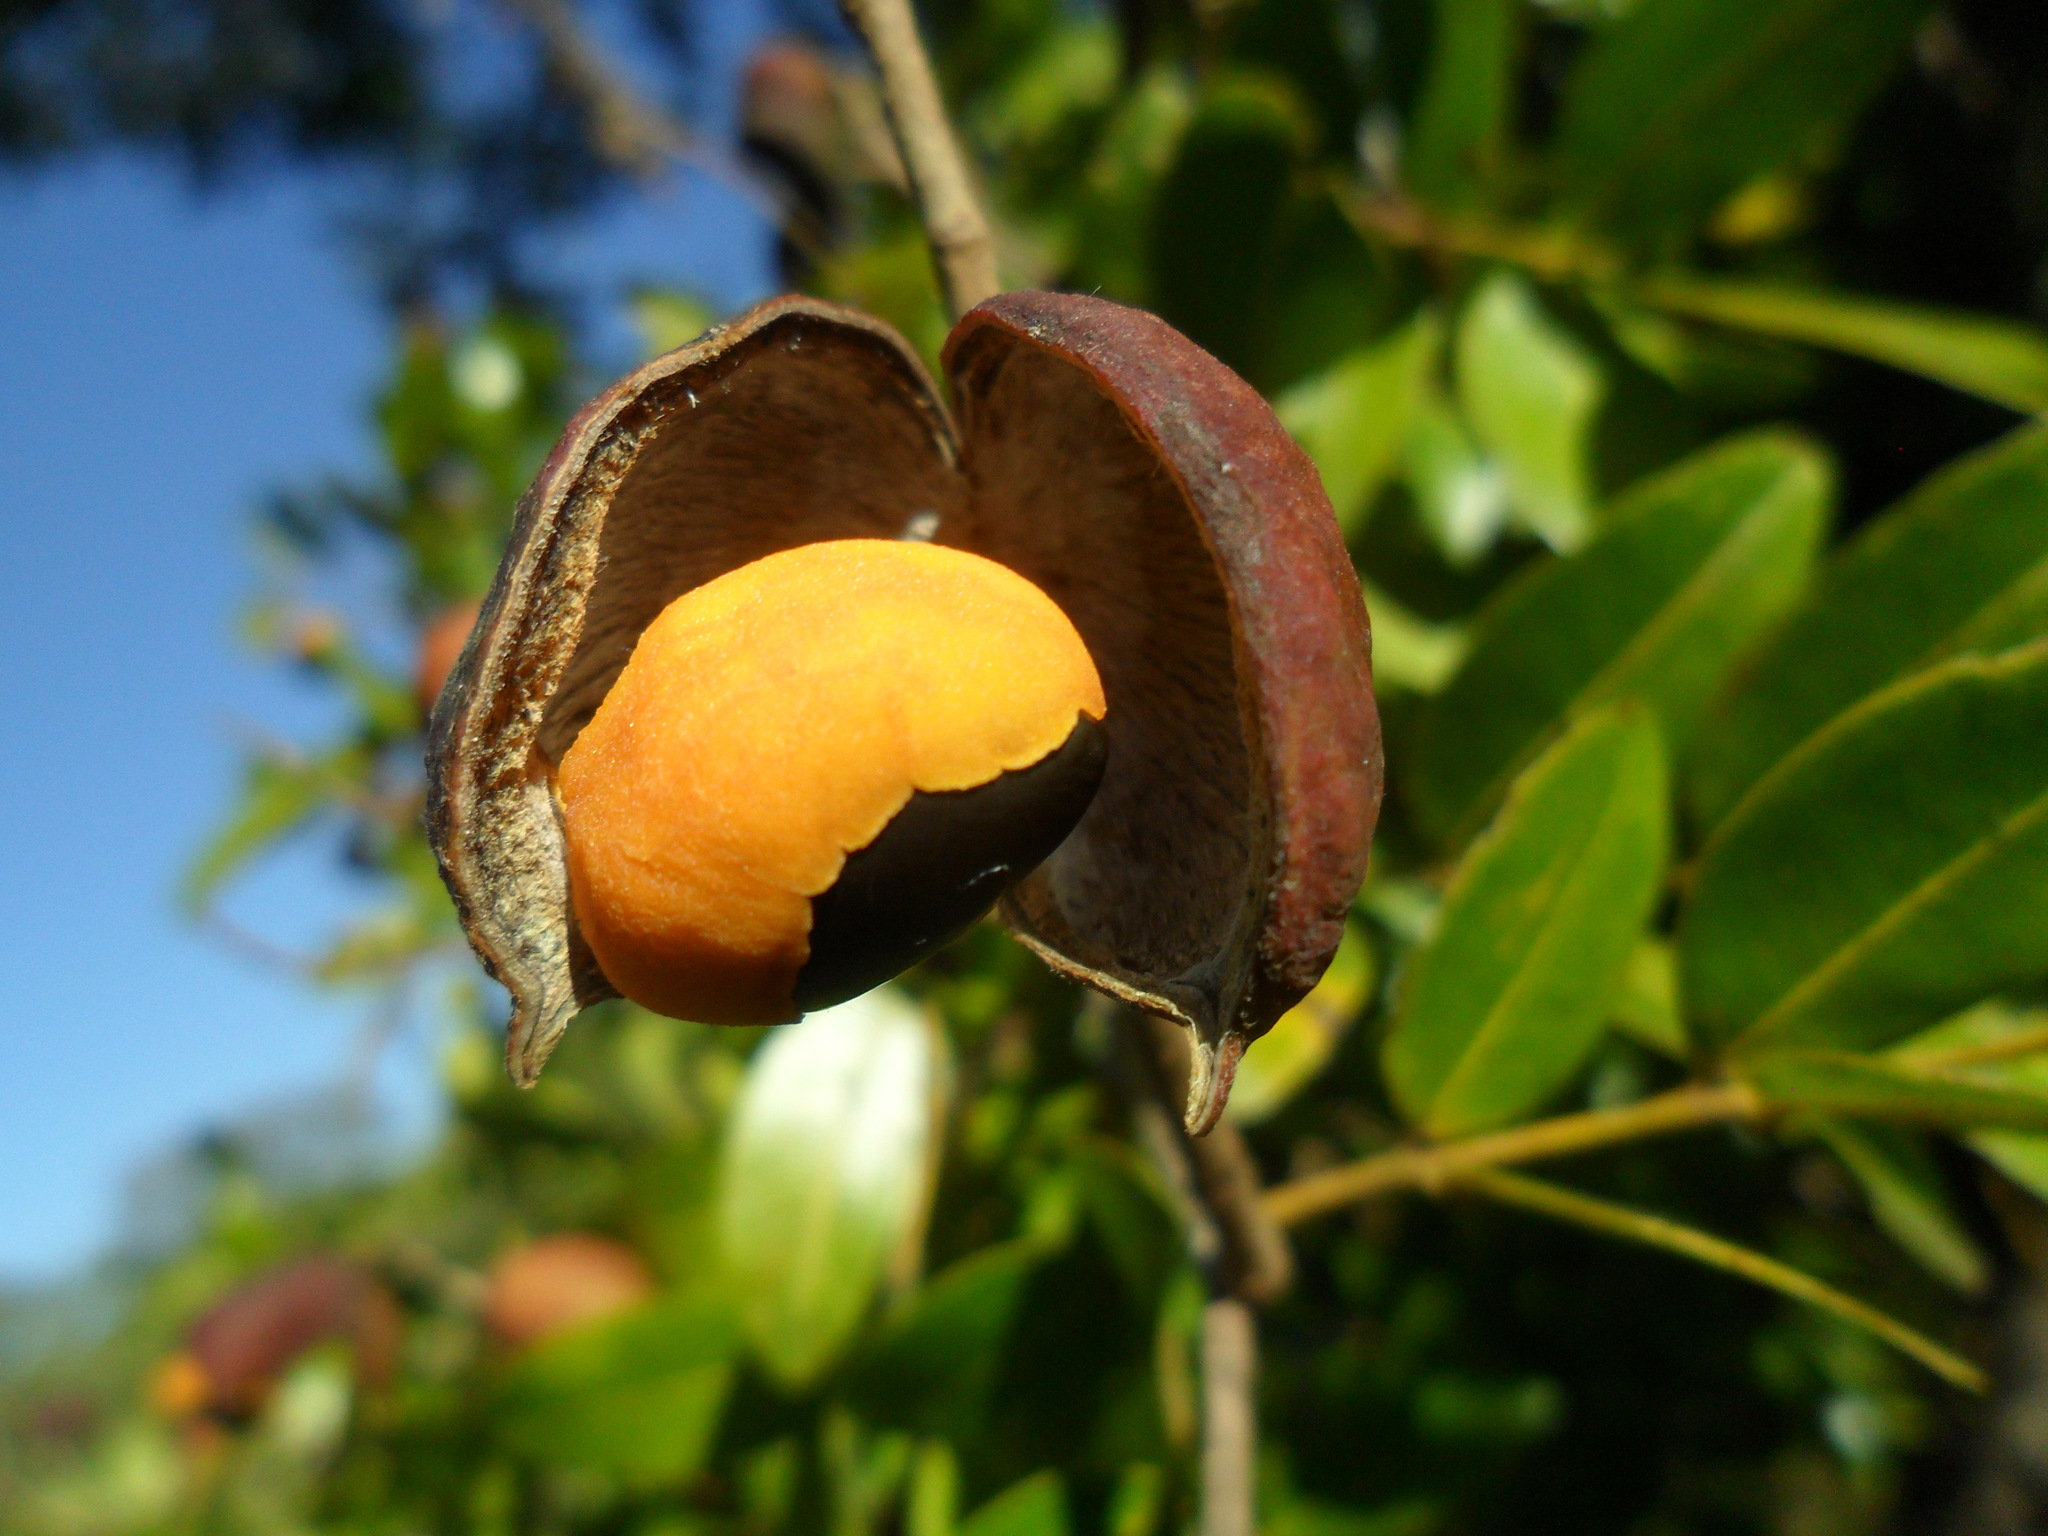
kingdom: Plantae
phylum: Tracheophyta
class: Magnoliopsida
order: Fabales
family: Fabaceae
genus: Copaifera
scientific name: Copaifera langsdorffii
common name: Brazilian diesel tree
